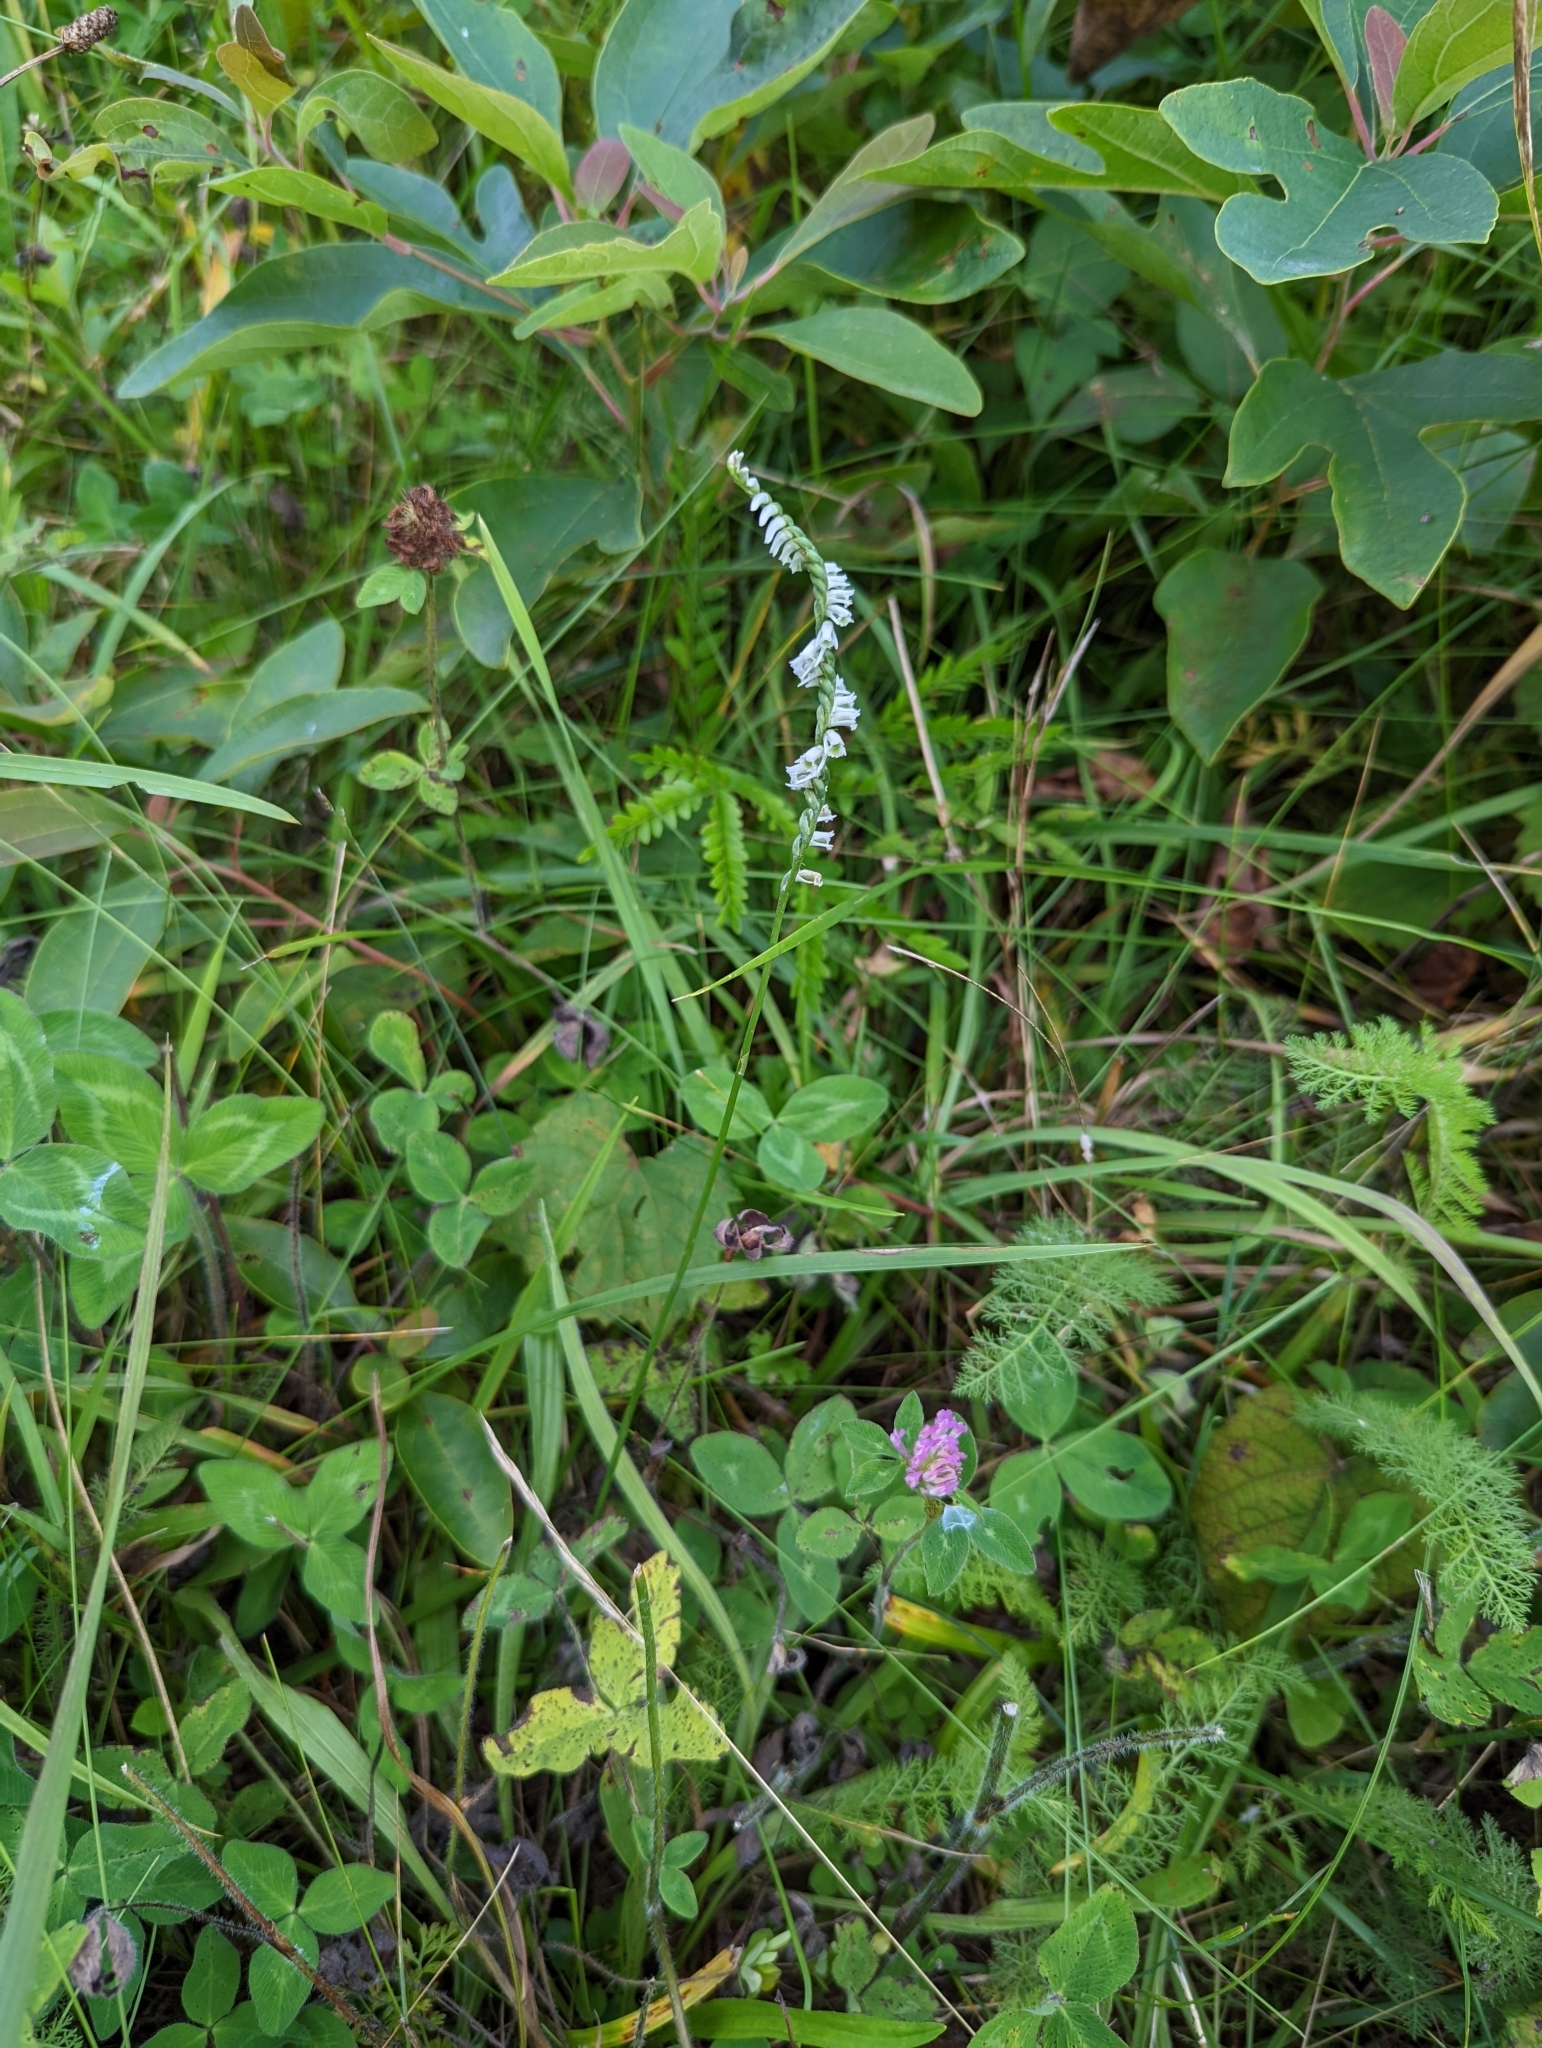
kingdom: Plantae
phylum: Tracheophyta
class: Liliopsida
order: Asparagales
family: Orchidaceae
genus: Spiranthes
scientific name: Spiranthes lacera
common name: Northern slender ladies'-tresses
